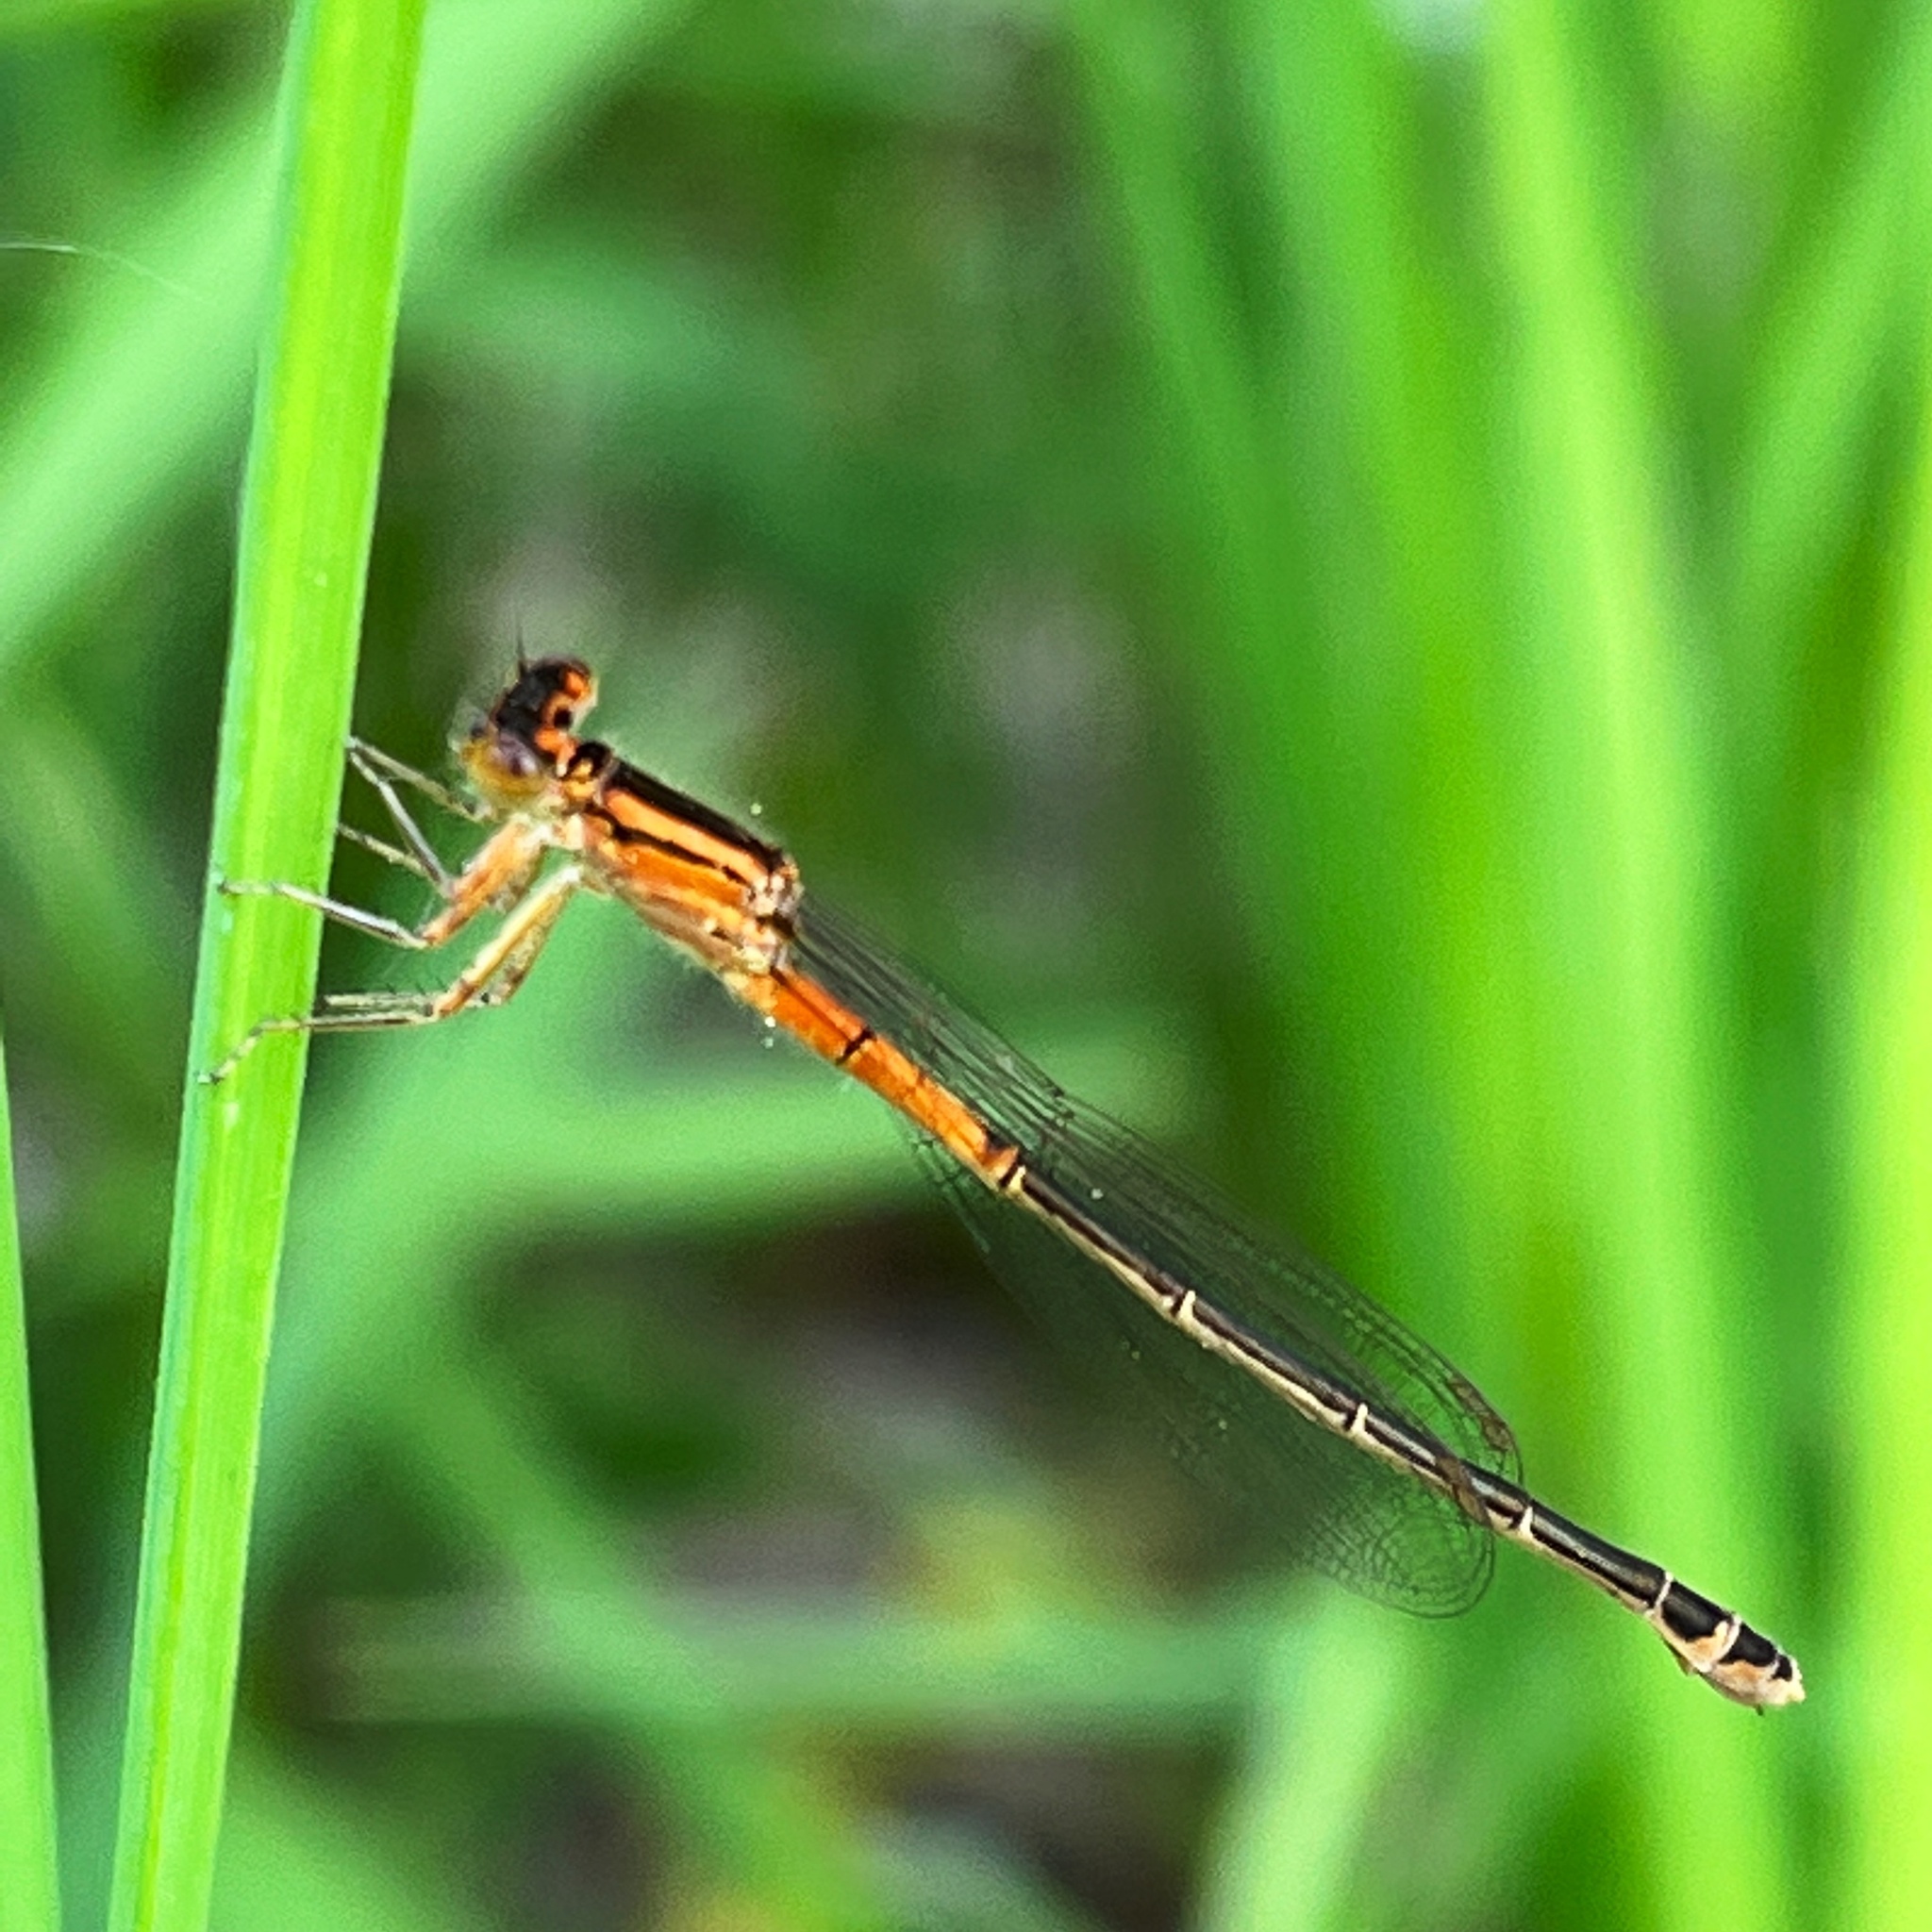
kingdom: Animalia
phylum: Arthropoda
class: Insecta
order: Odonata
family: Coenagrionidae
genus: Ischnura
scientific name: Ischnura verticalis
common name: Eastern forktail
